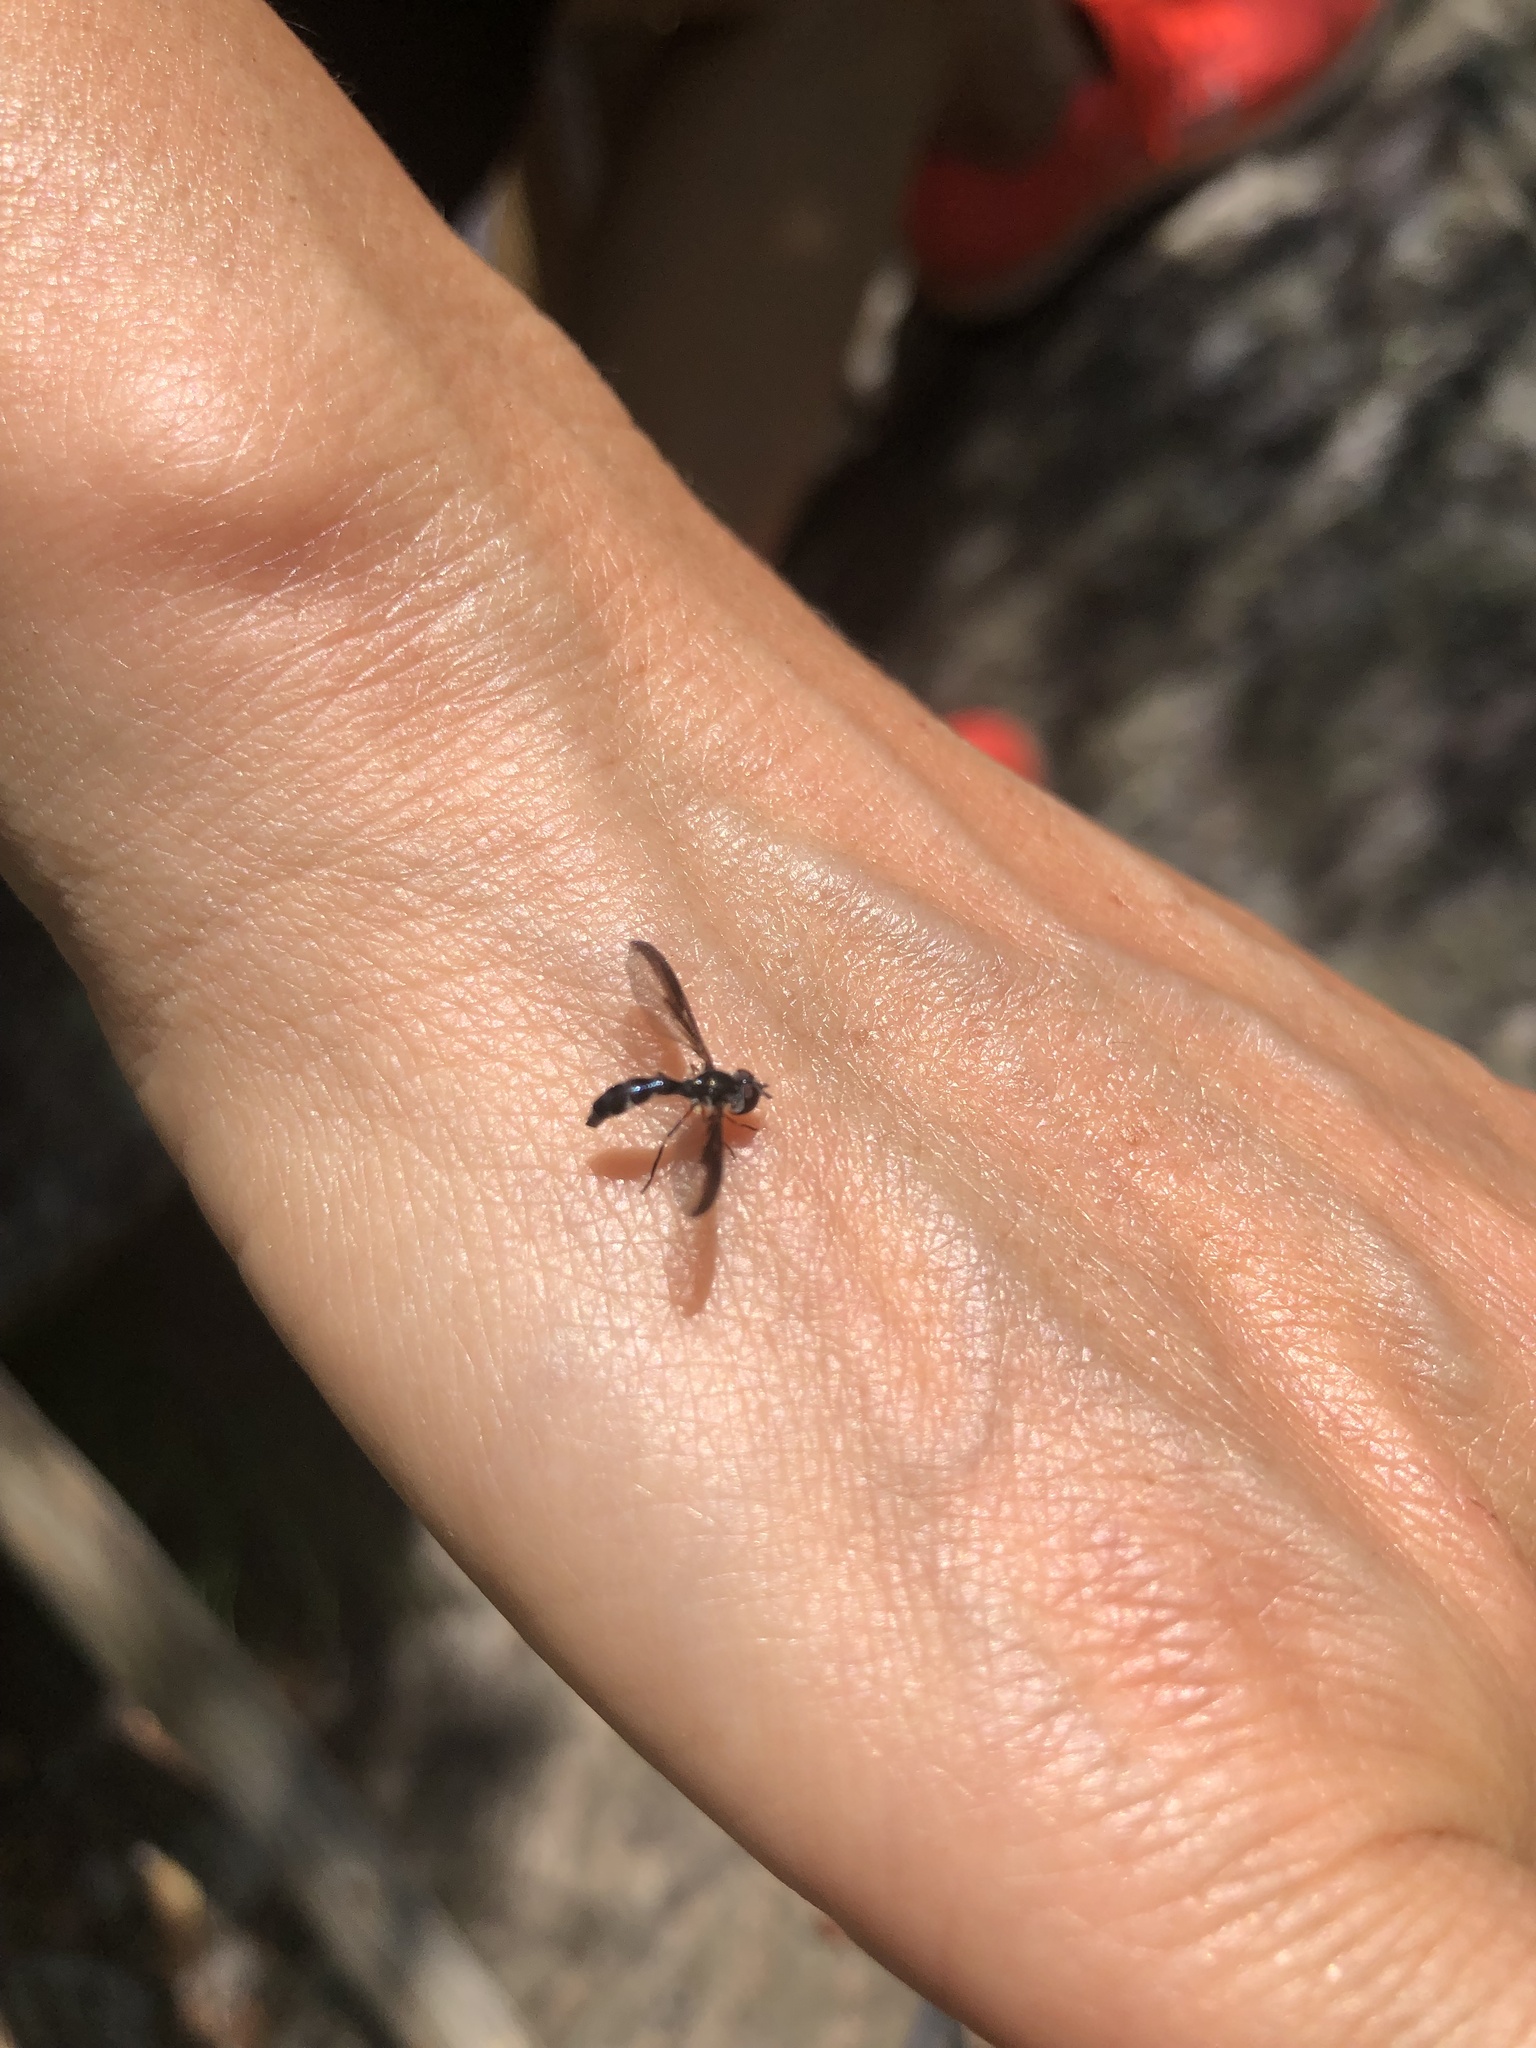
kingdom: Animalia
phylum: Arthropoda
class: Insecta
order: Diptera
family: Syrphidae
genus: Ocyptamus
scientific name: Ocyptamus costatus
